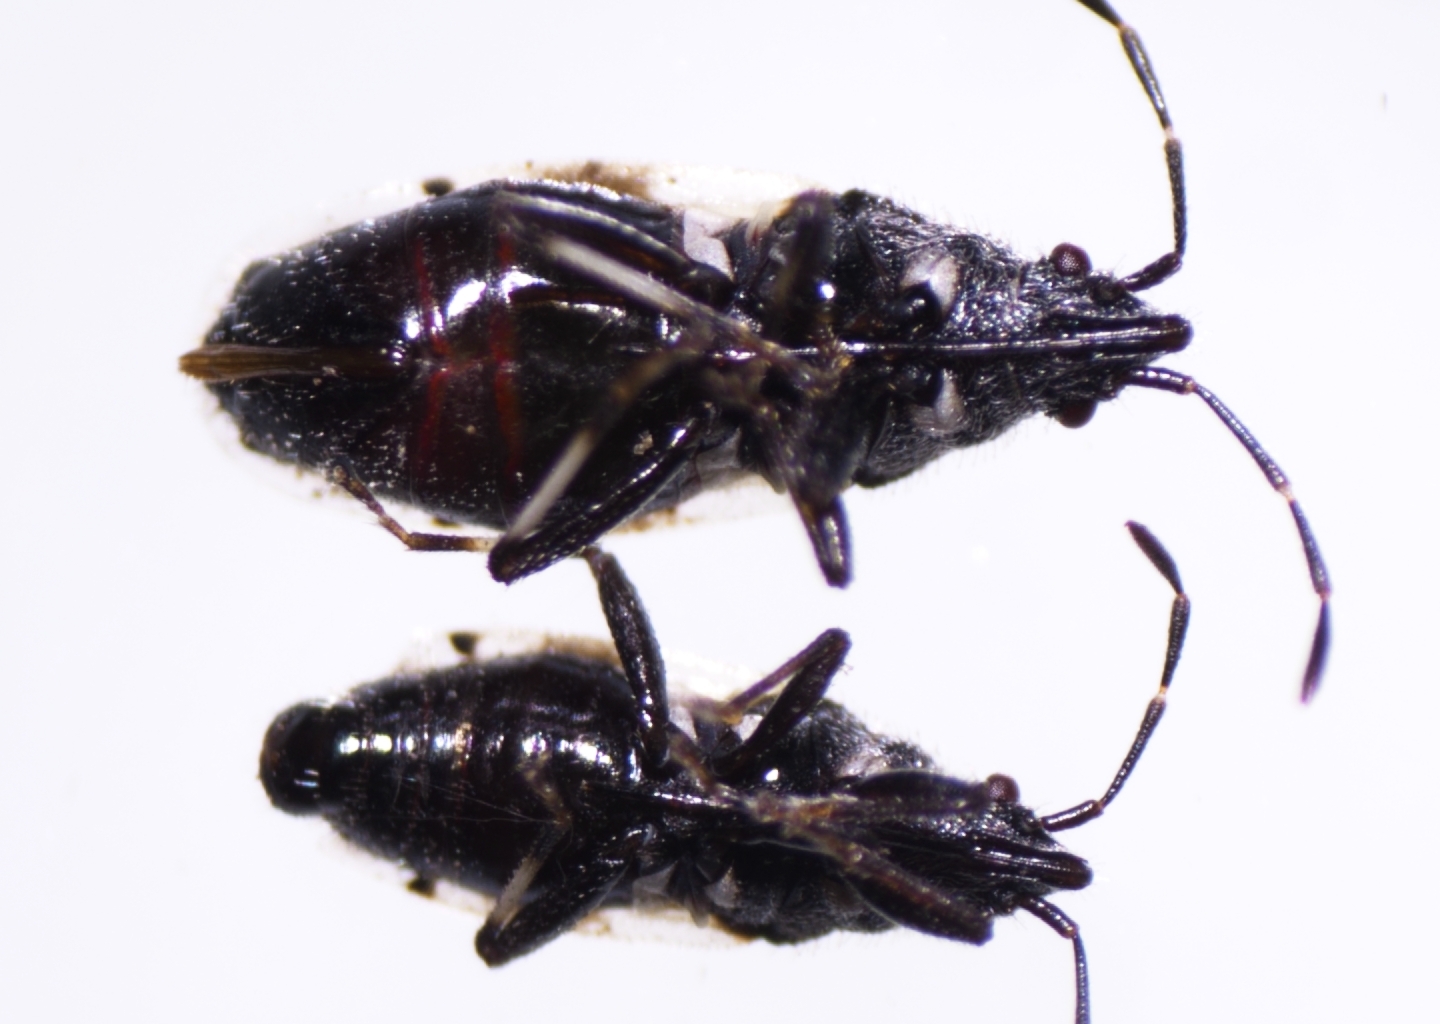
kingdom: Animalia
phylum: Arthropoda
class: Insecta
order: Hemiptera
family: Oxycarenidae
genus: Oxycarenus
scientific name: Oxycarenus luctuosus
